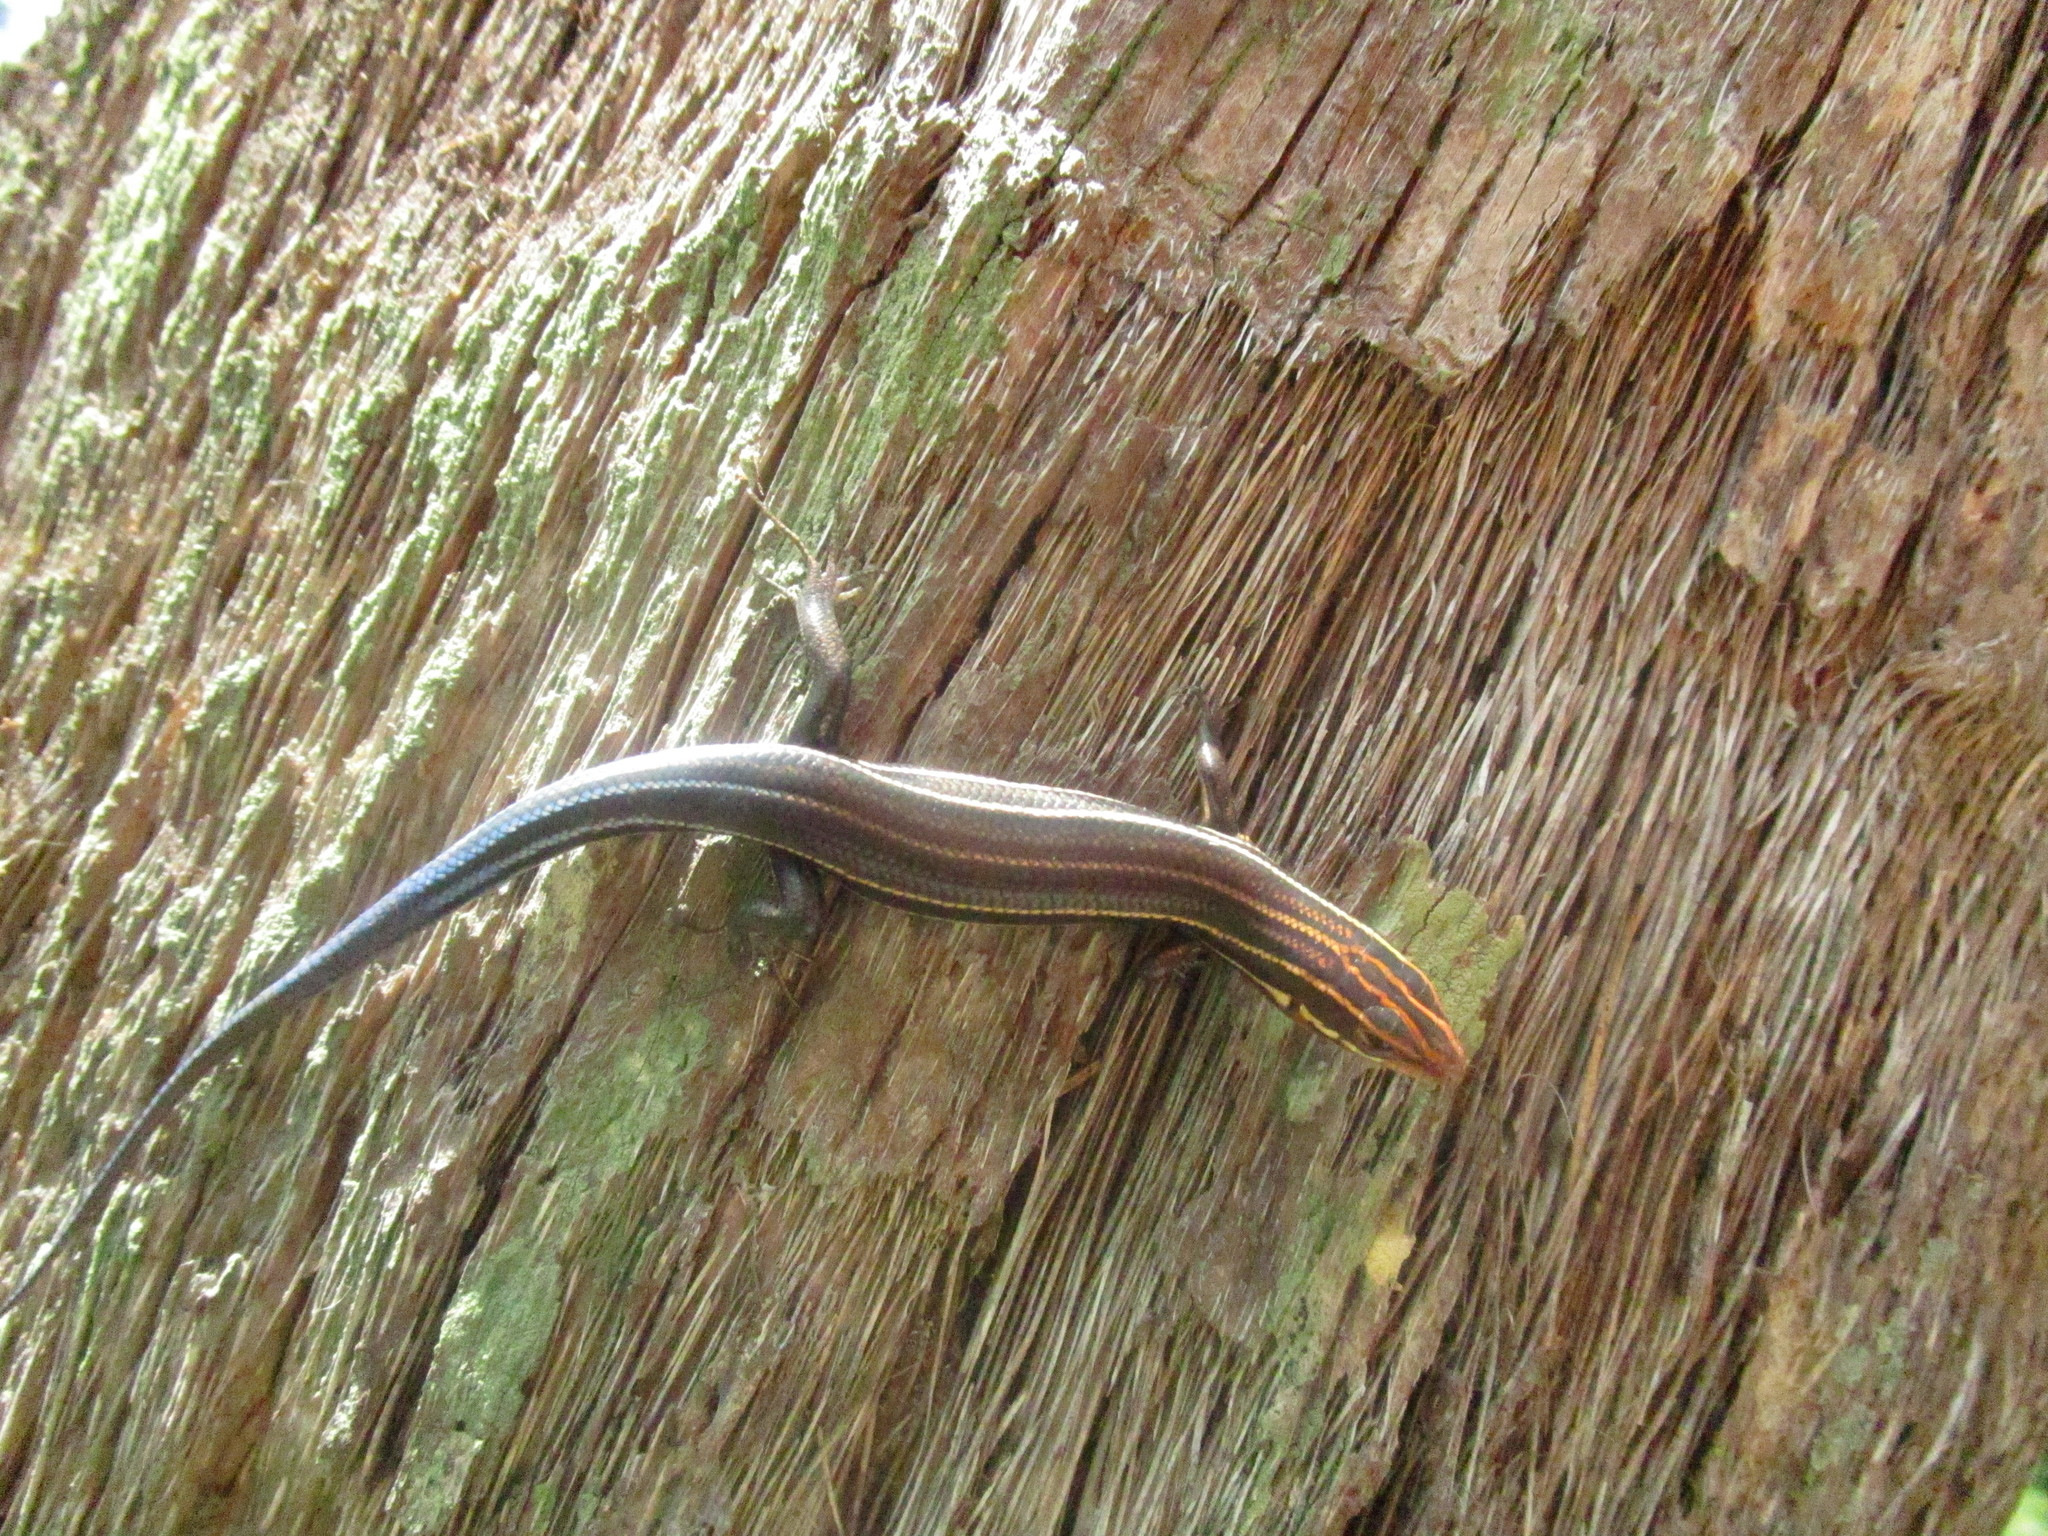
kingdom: Animalia
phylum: Chordata
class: Squamata
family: Scincidae
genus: Plestiodon
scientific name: Plestiodon inexpectatus
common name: Southeastern five-lined skink
